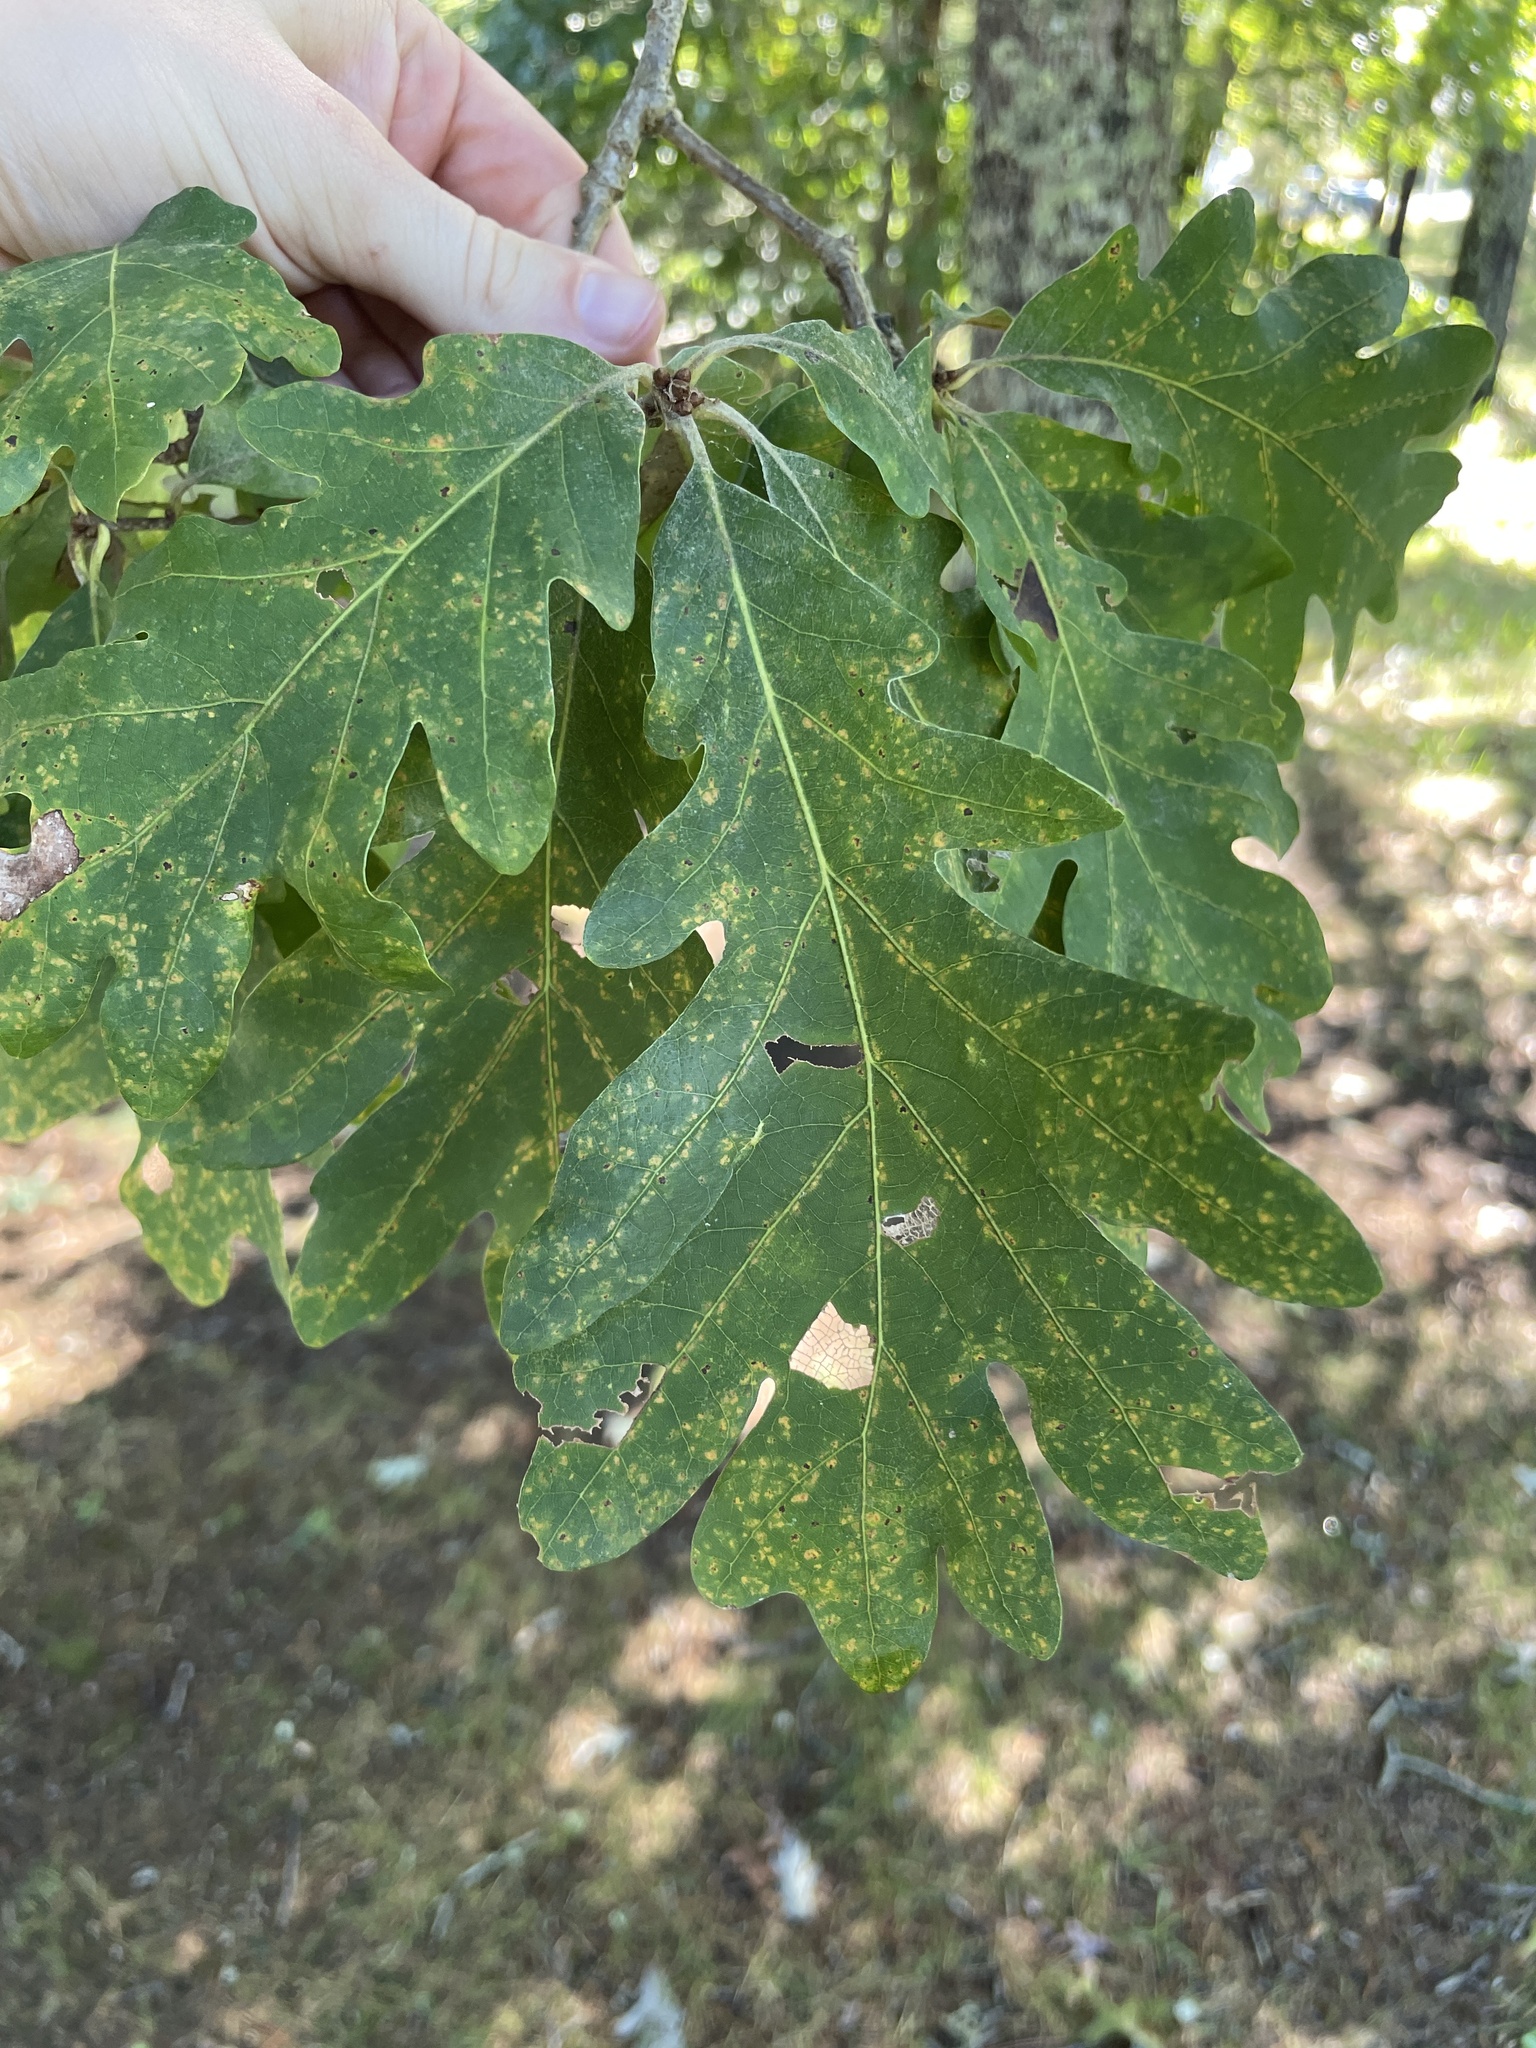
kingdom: Plantae
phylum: Tracheophyta
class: Magnoliopsida
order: Fagales
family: Fagaceae
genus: Quercus
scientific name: Quercus alba
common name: White oak
